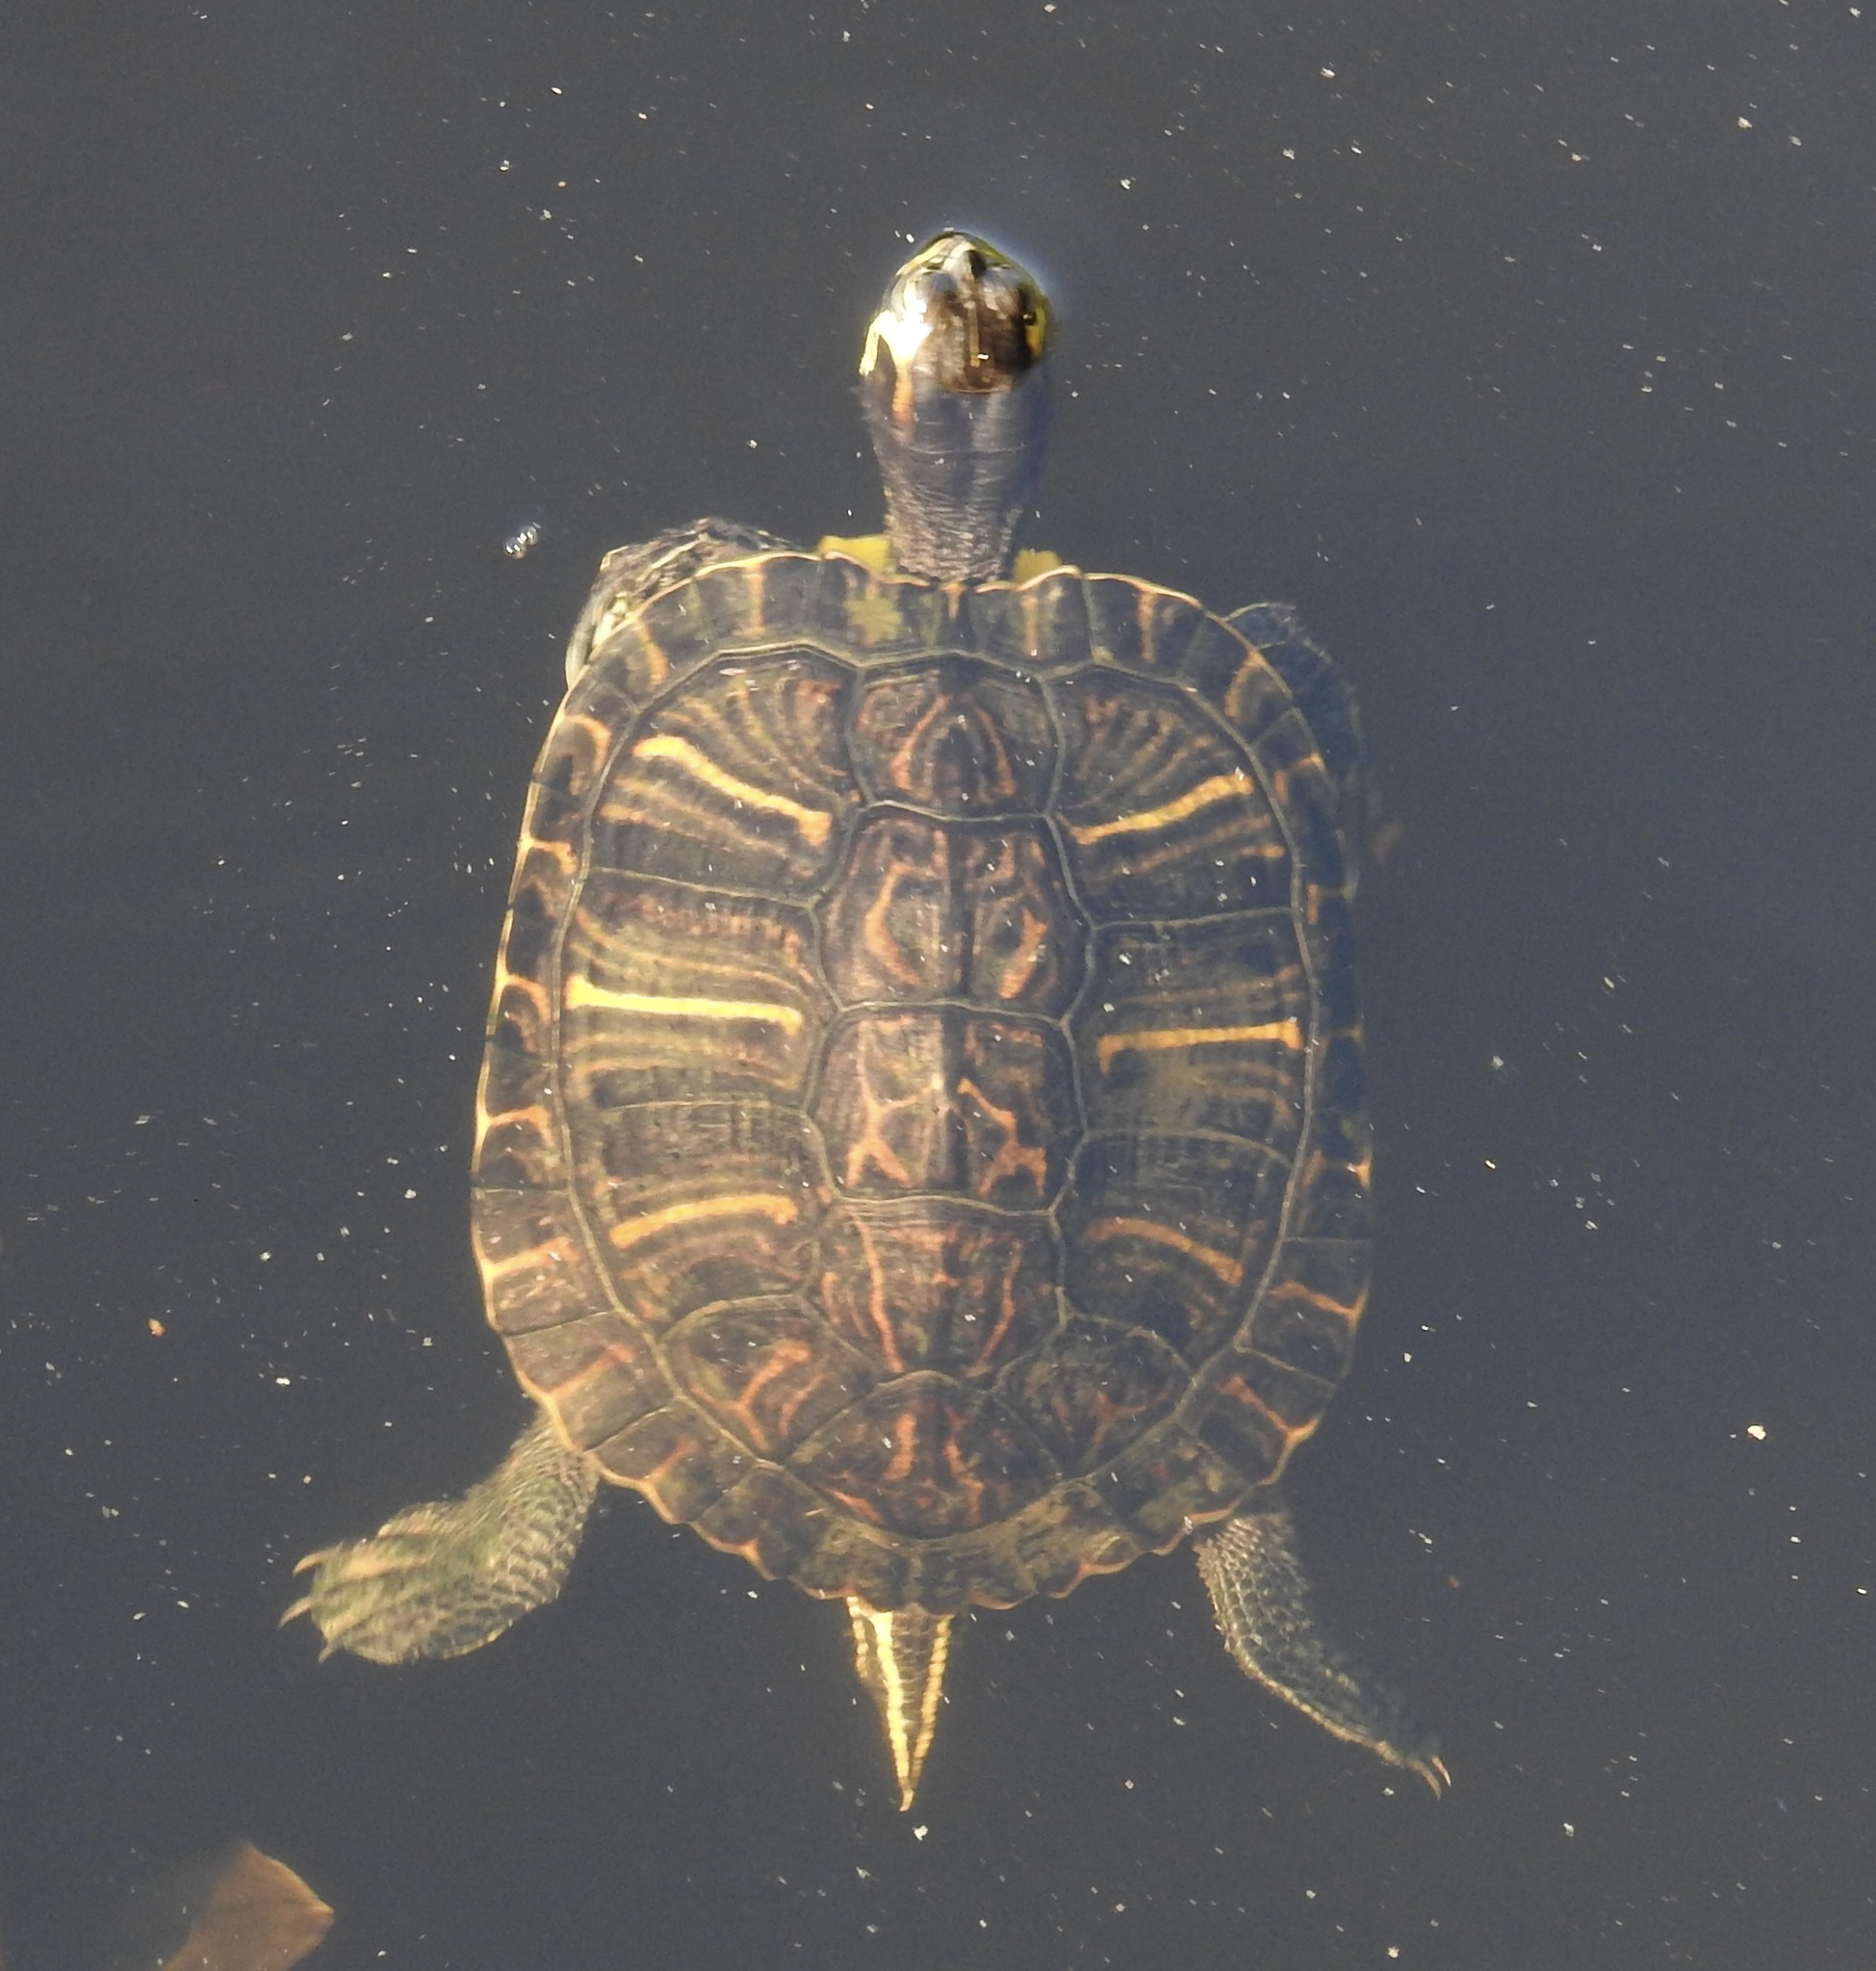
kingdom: Animalia
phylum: Chordata
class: Testudines
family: Emydidae
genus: Trachemys
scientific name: Trachemys scripta
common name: Slider
